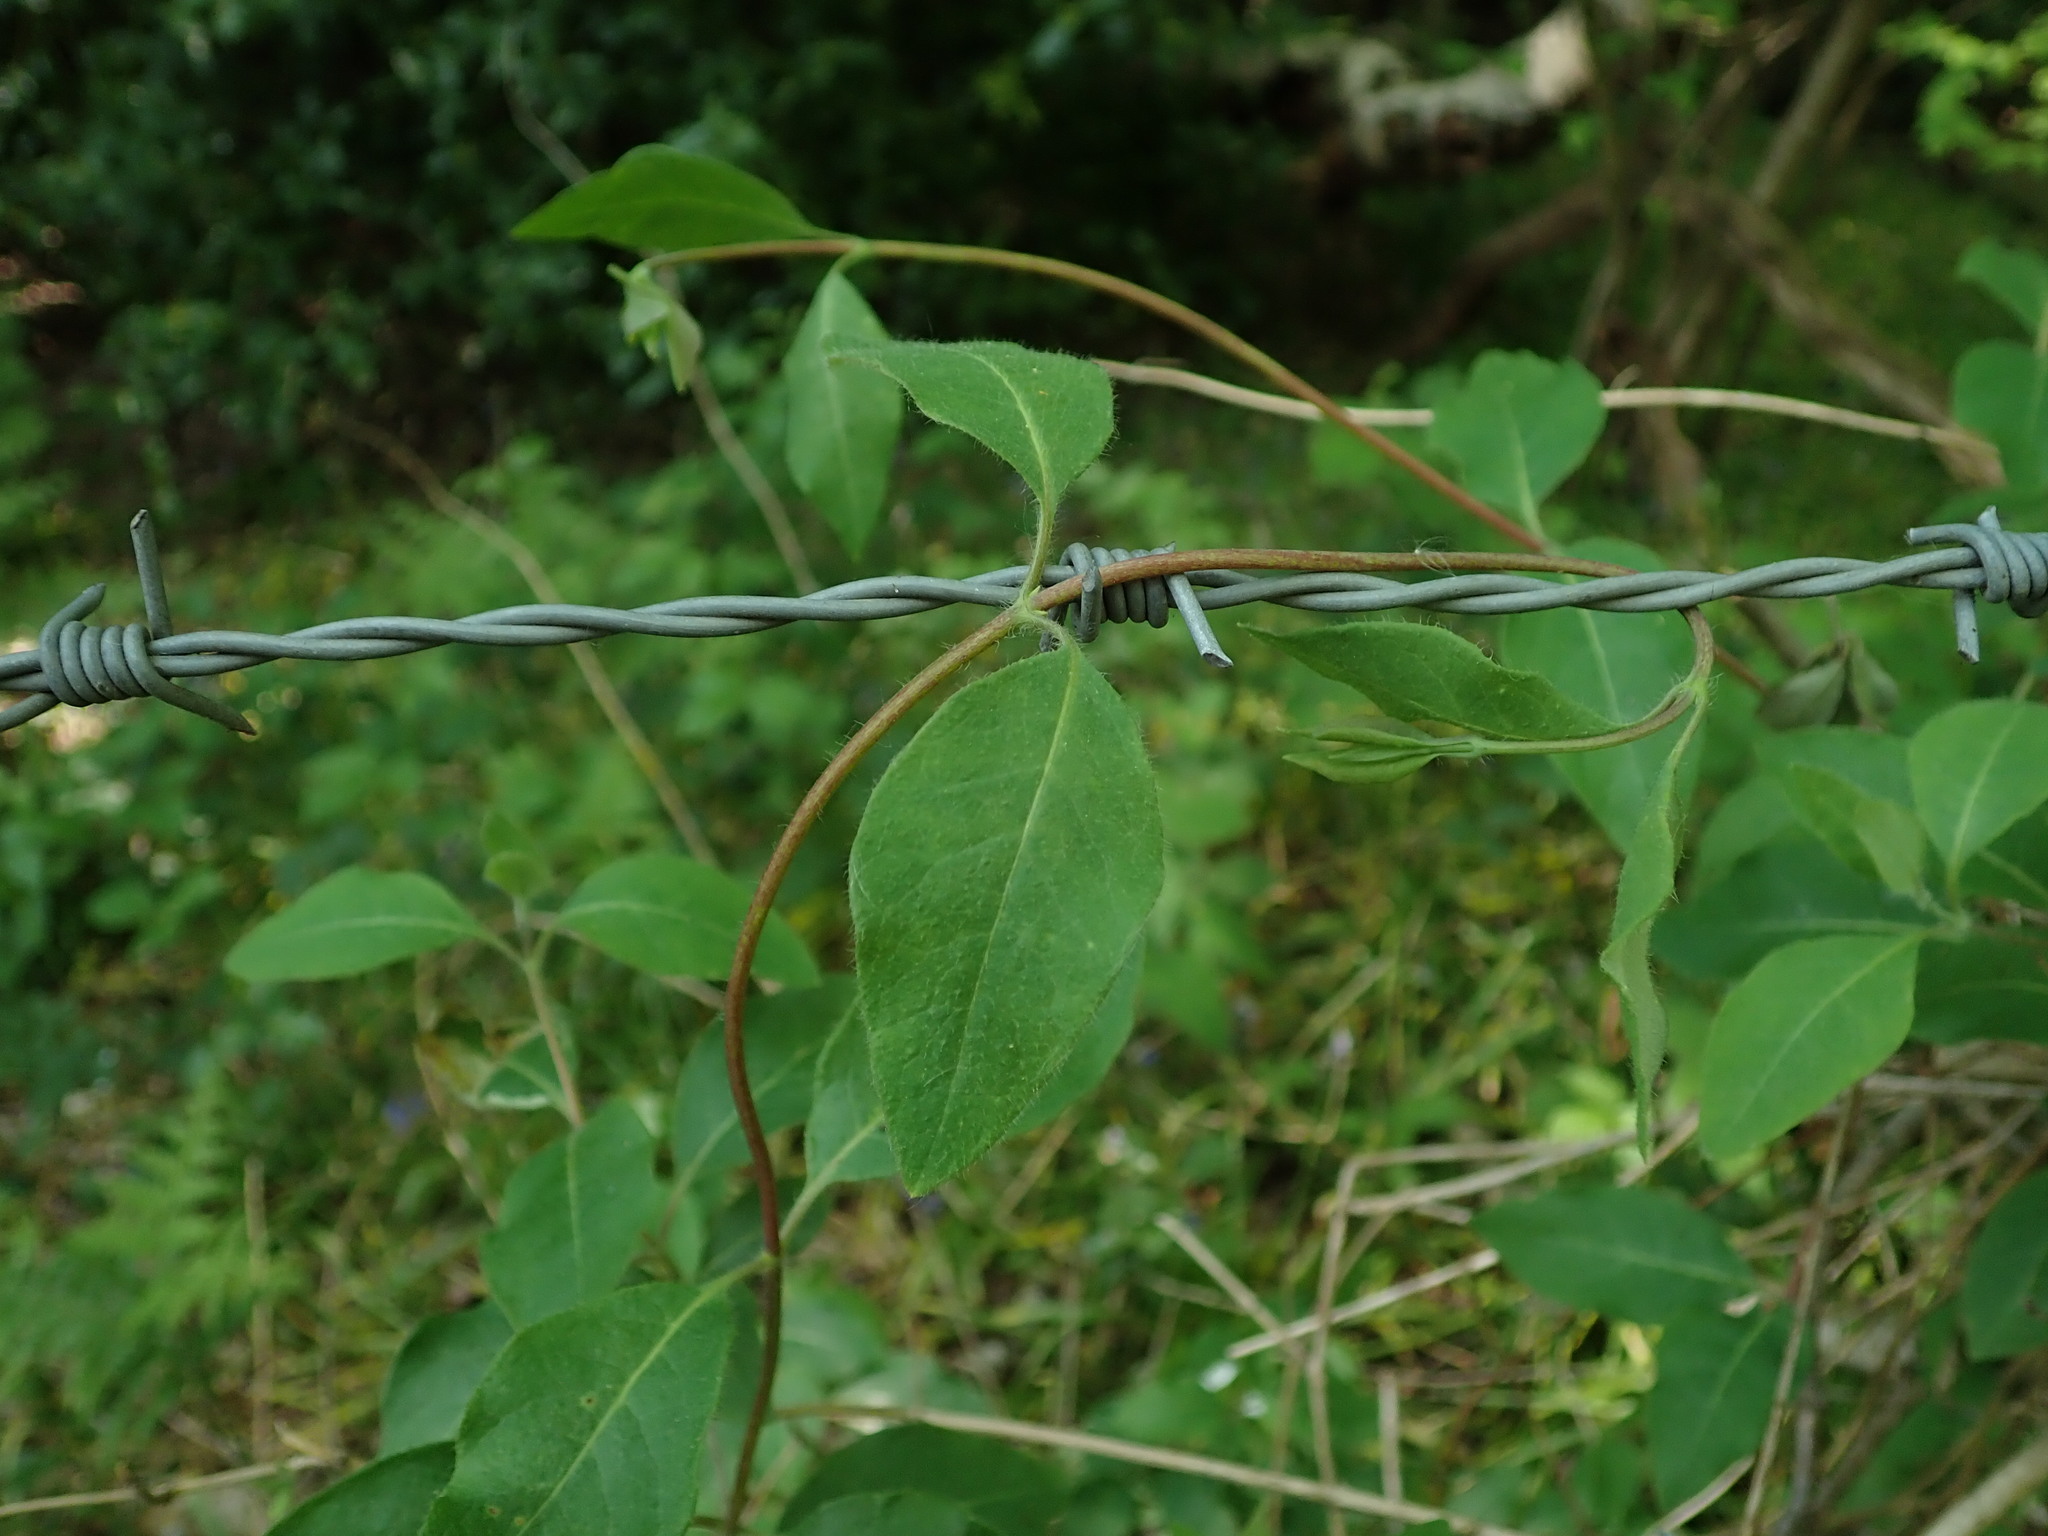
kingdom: Plantae
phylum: Tracheophyta
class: Magnoliopsida
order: Dipsacales
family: Caprifoliaceae
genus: Lonicera
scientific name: Lonicera periclymenum
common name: European honeysuckle
